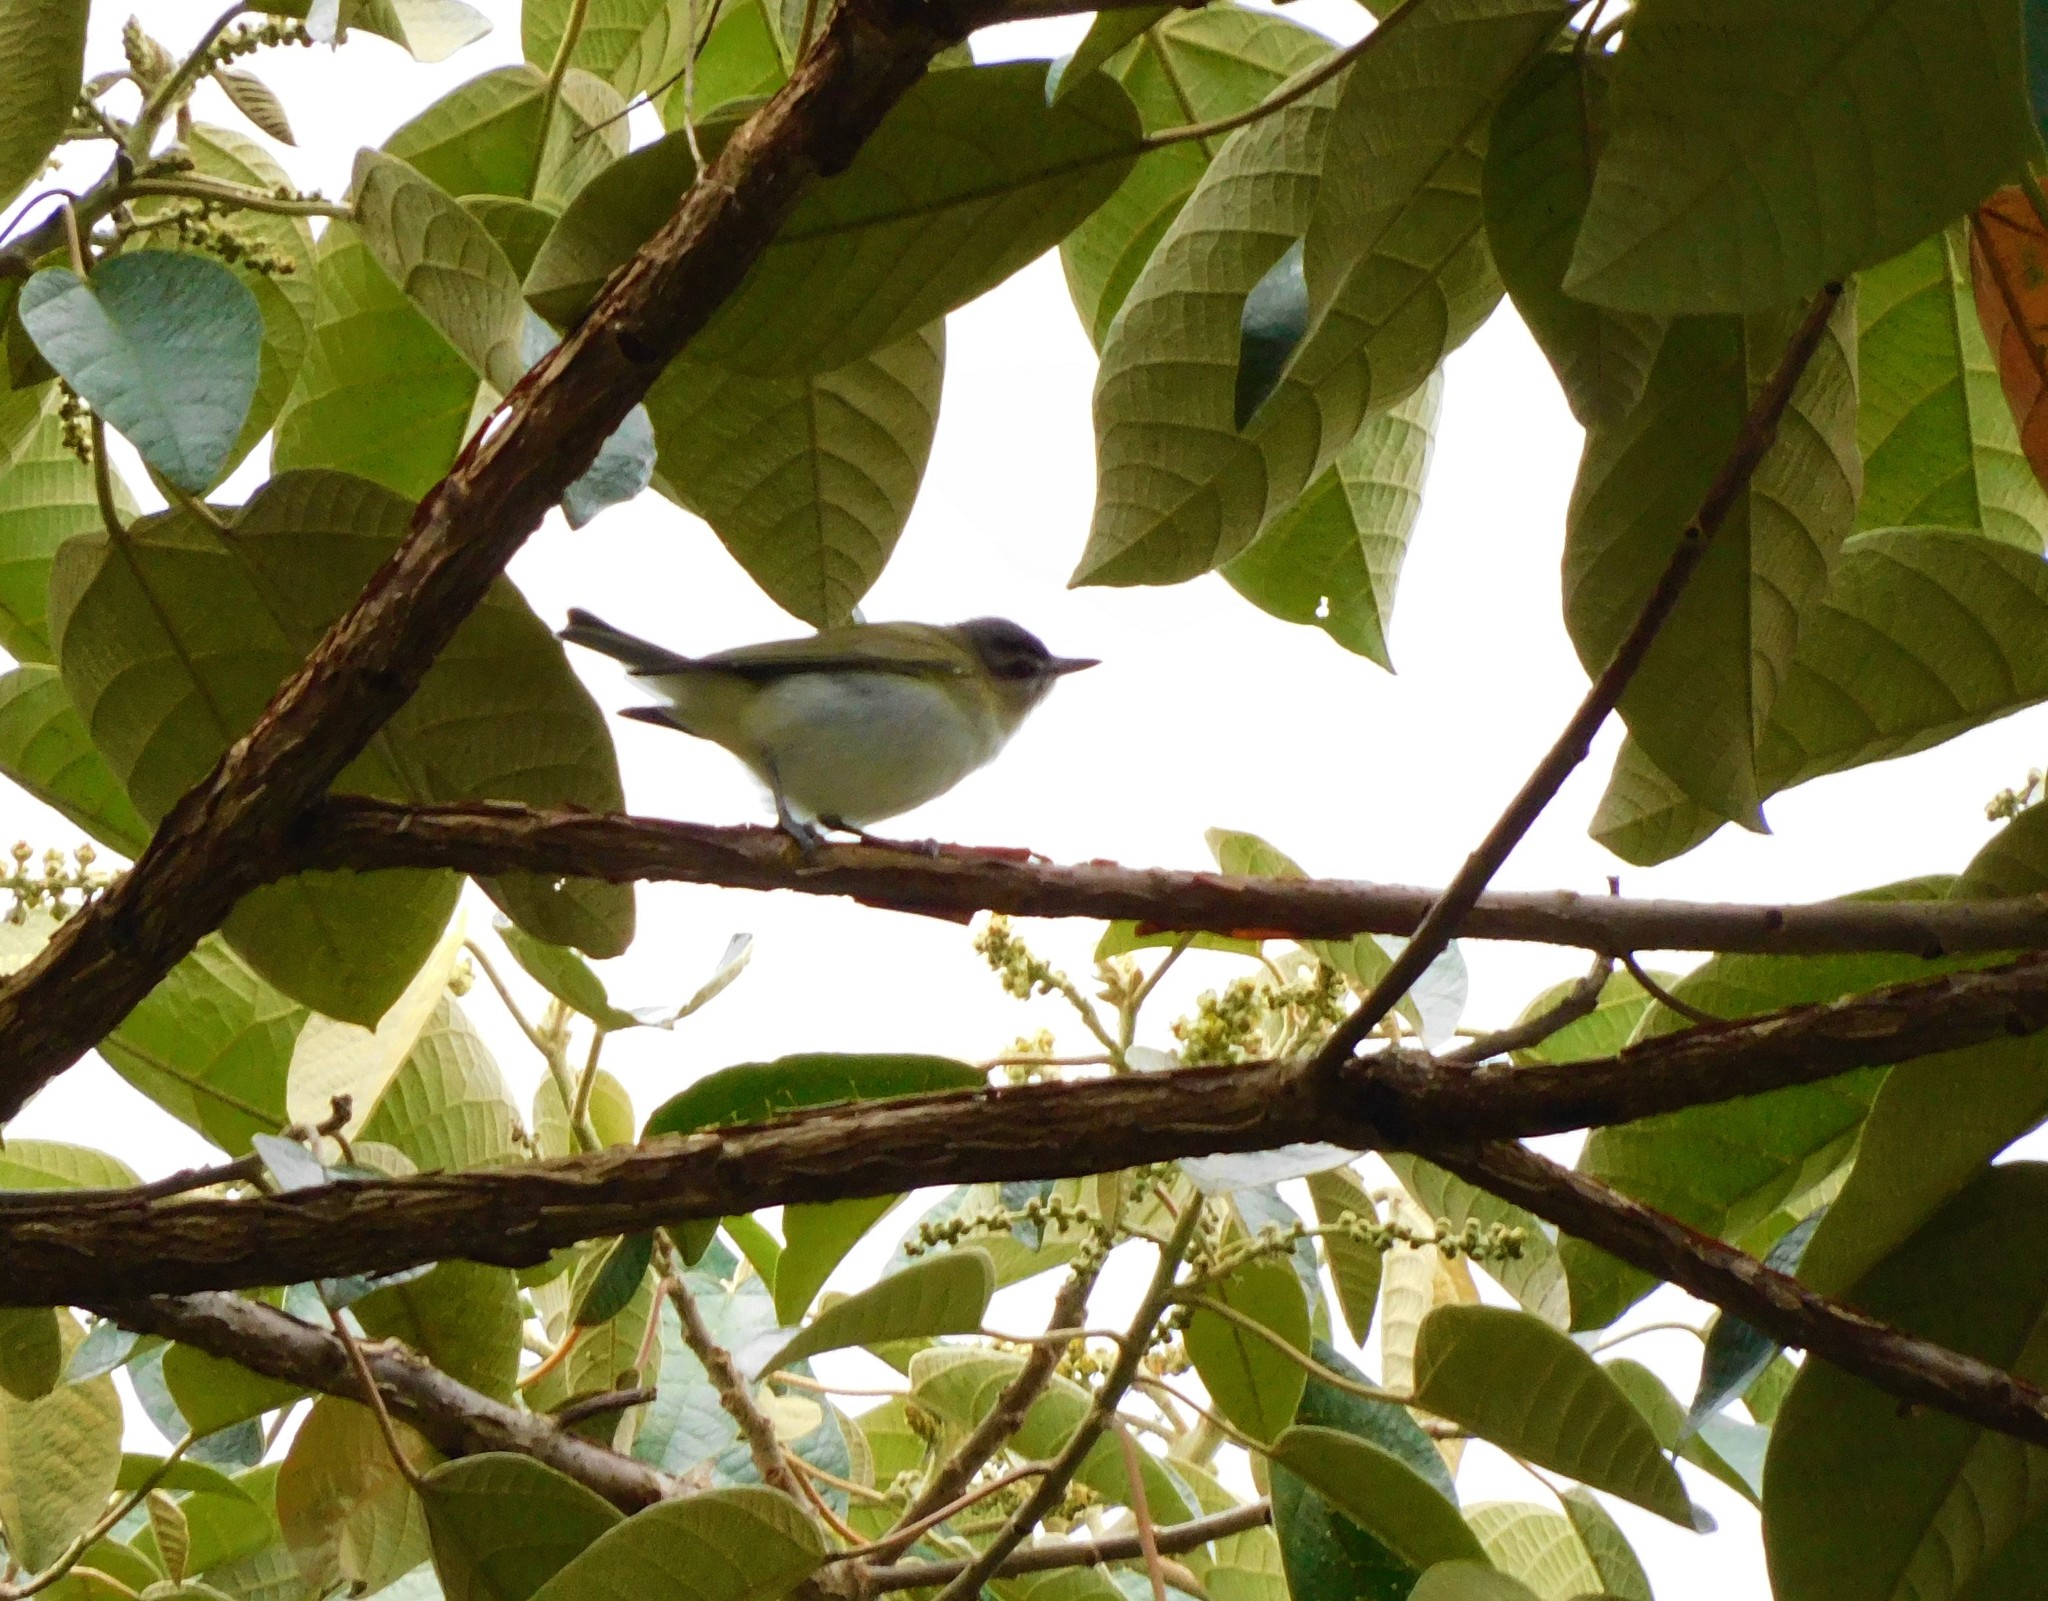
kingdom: Animalia
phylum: Chordata
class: Aves
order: Passeriformes
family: Vireonidae
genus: Vireo
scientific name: Vireo olivaceus
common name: Red-eyed vireo
